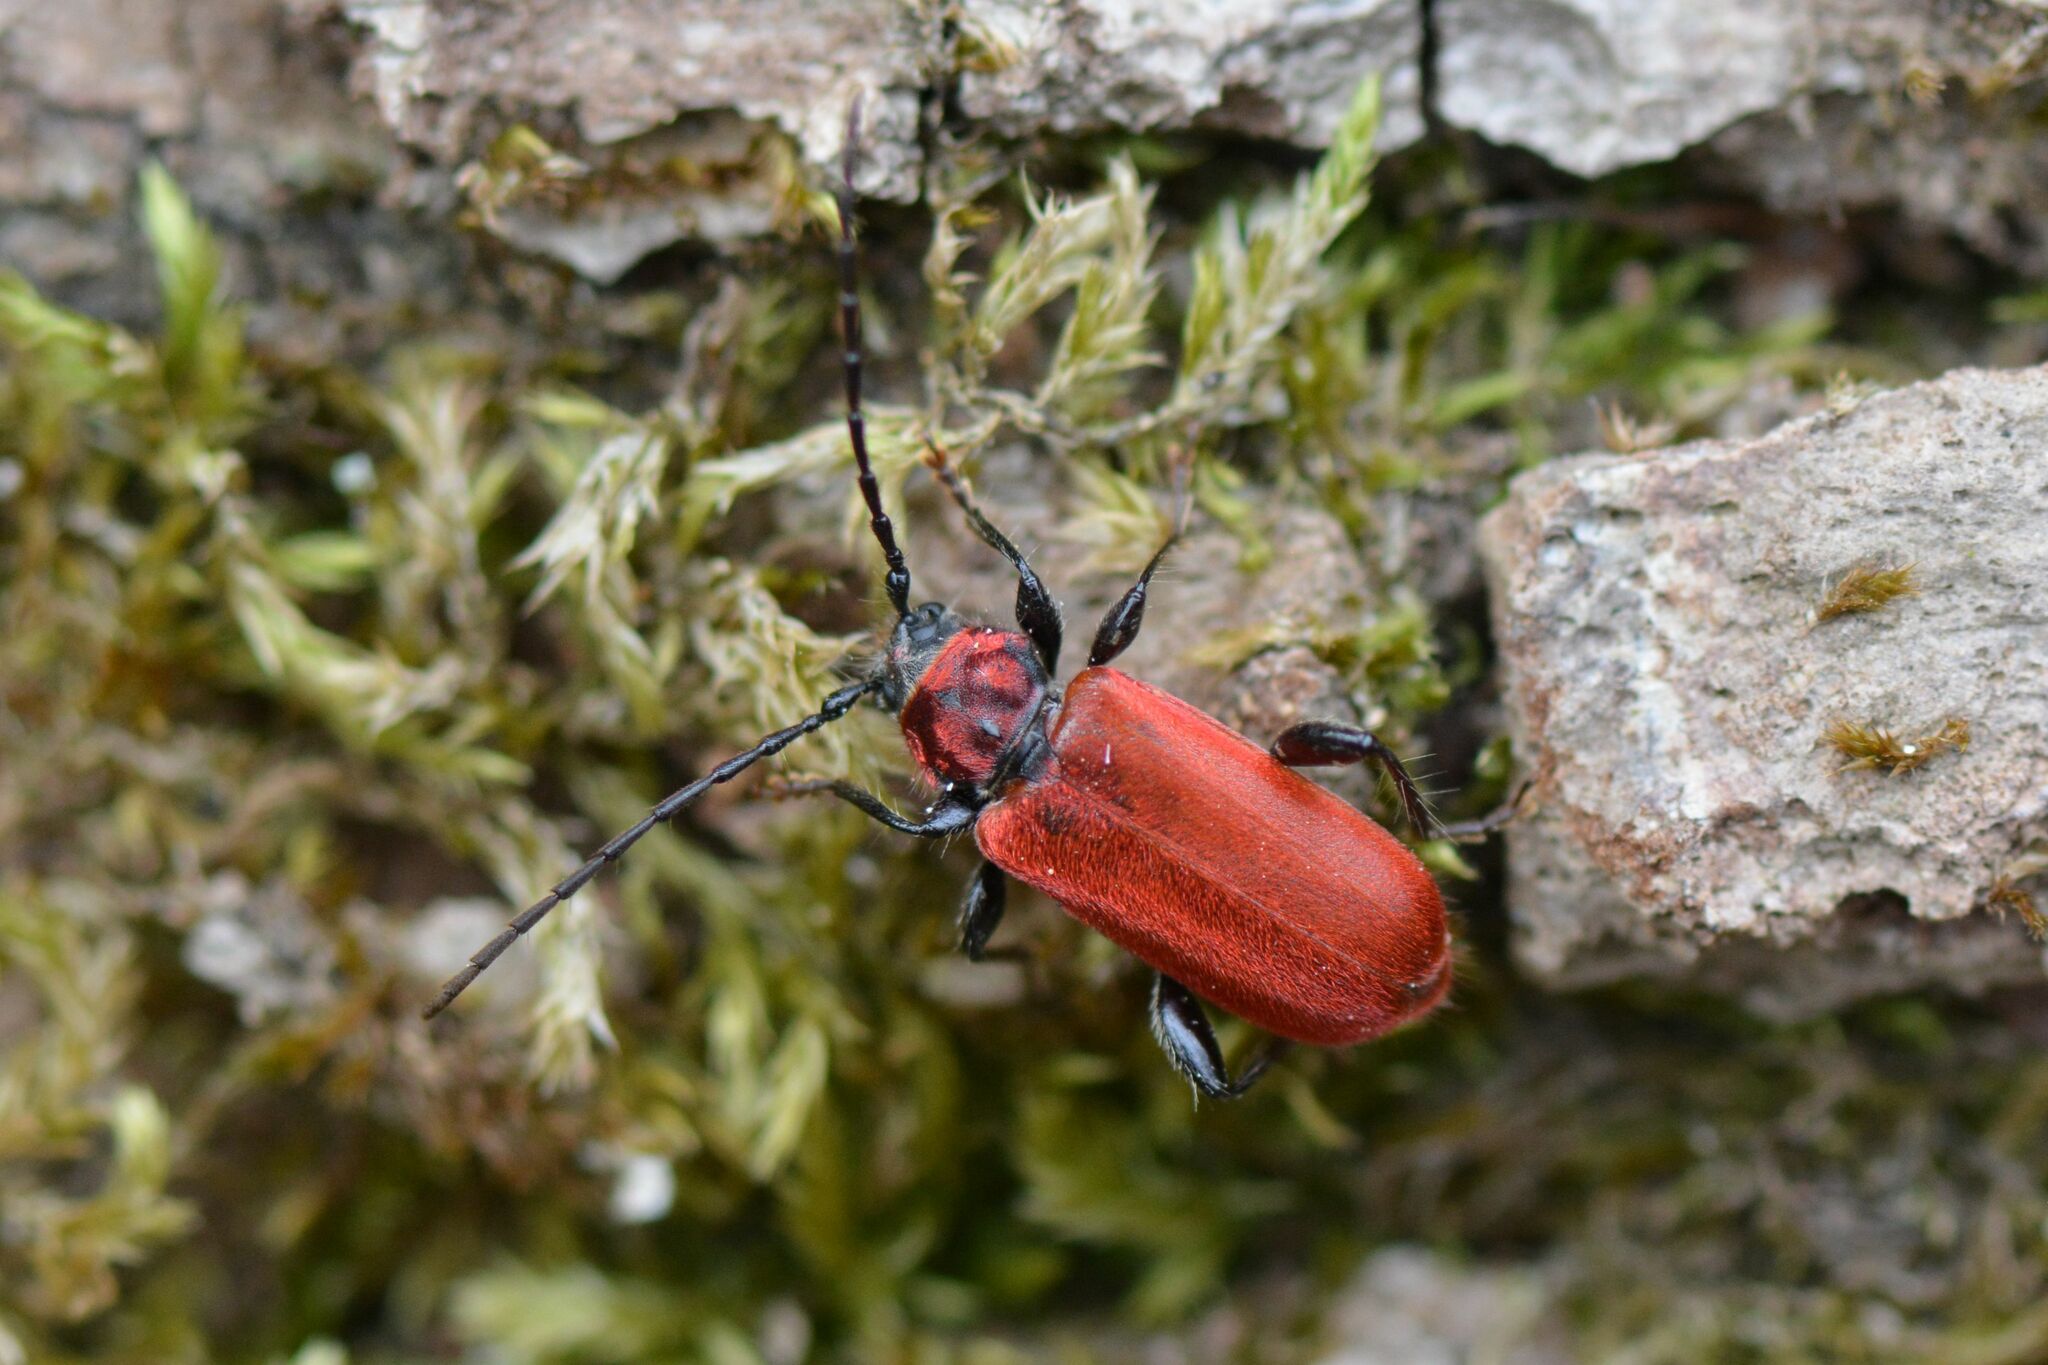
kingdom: Animalia
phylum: Arthropoda
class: Insecta
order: Coleoptera
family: Cerambycidae
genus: Pyrrhidium
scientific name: Pyrrhidium sanguineum
